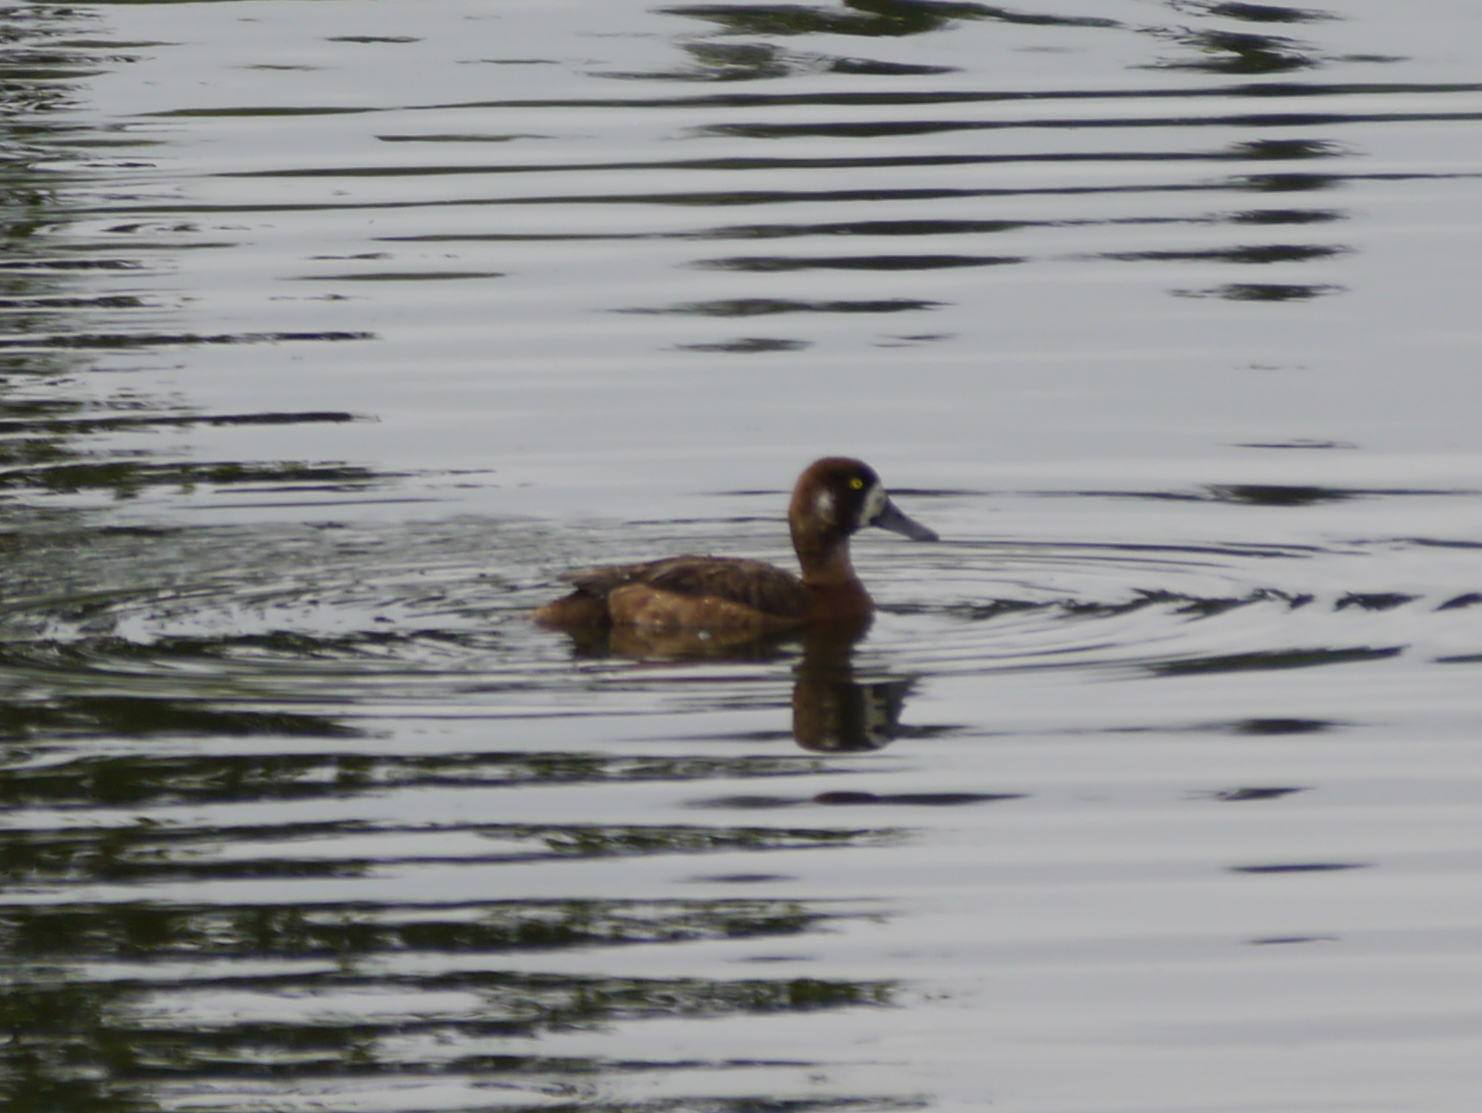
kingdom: Animalia
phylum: Chordata
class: Aves
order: Anseriformes
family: Anatidae
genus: Aythya
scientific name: Aythya marila
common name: Greater scaup
